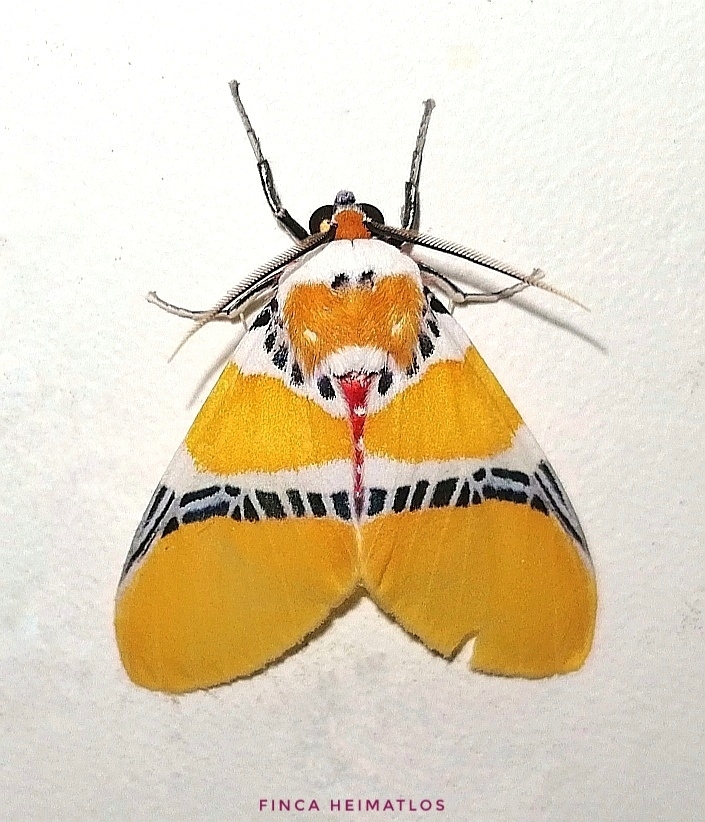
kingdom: Animalia
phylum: Arthropoda
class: Insecta
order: Lepidoptera
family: Erebidae
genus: Idalus
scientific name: Idalus albitornus
